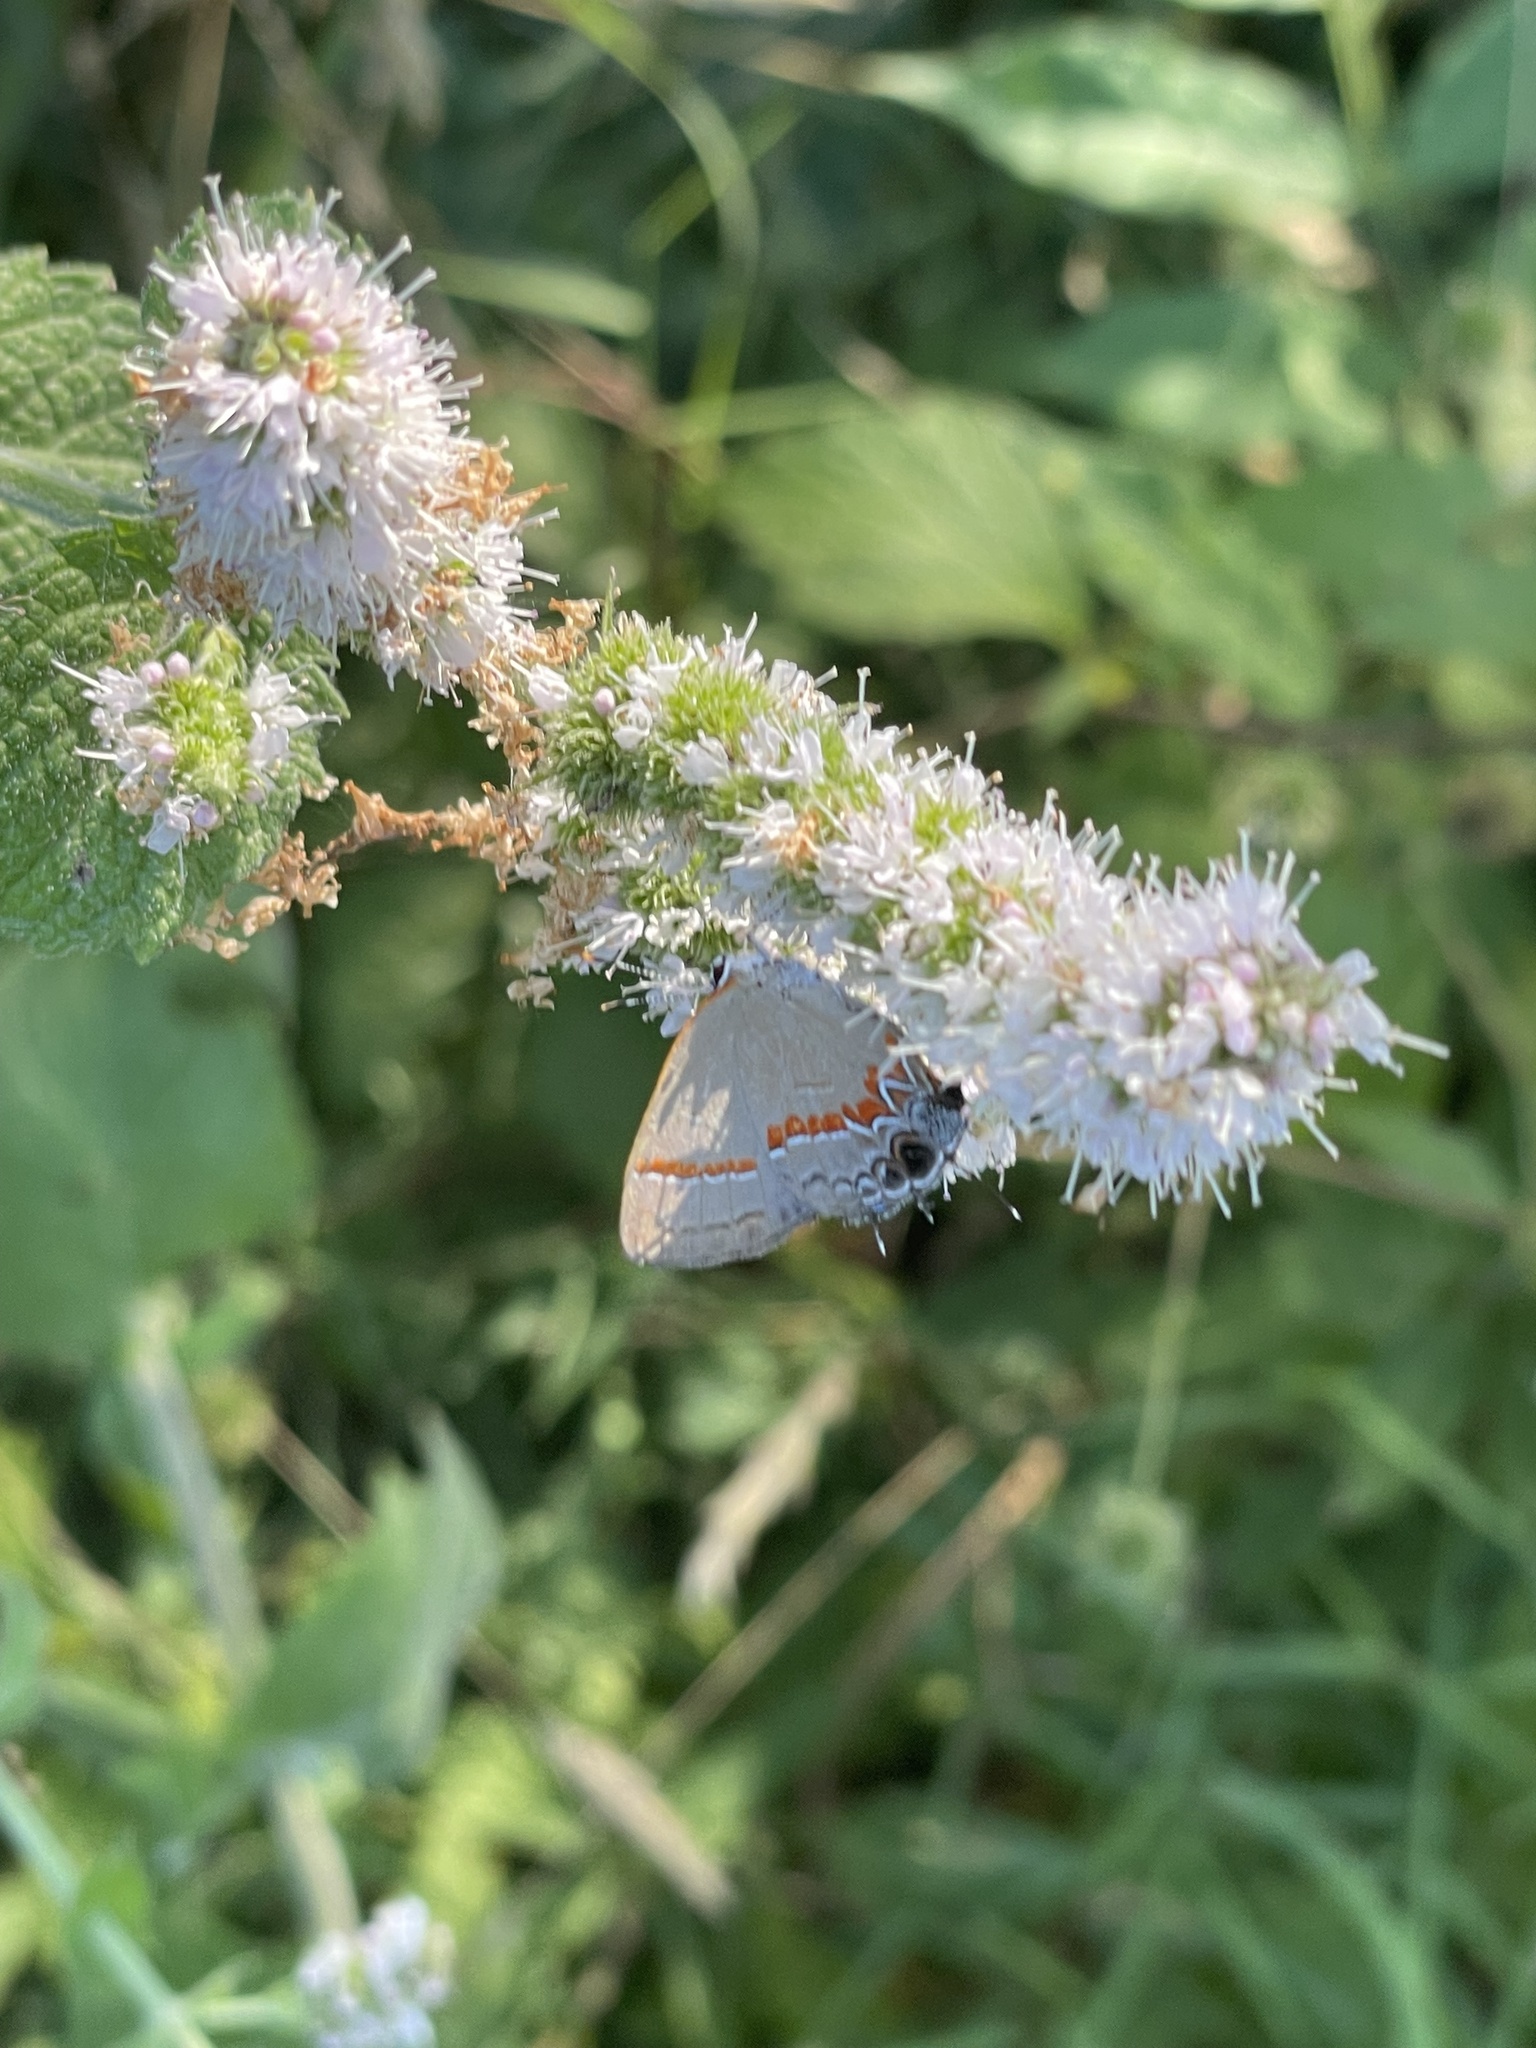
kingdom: Animalia
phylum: Arthropoda
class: Insecta
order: Lepidoptera
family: Lycaenidae
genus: Calycopis
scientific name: Calycopis cecrops
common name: Red-banded hairstreak
